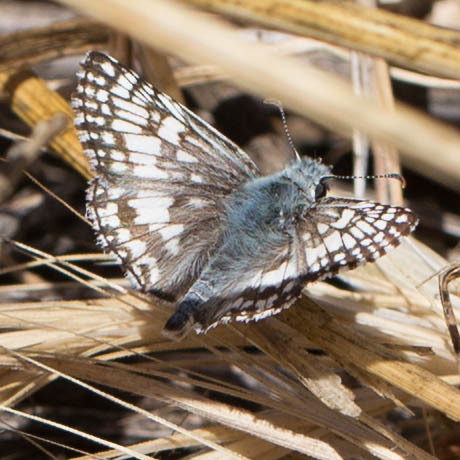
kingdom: Animalia
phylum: Arthropoda
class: Insecta
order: Lepidoptera
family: Hesperiidae
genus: Burnsius
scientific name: Burnsius communis
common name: Common checkered-skipper
